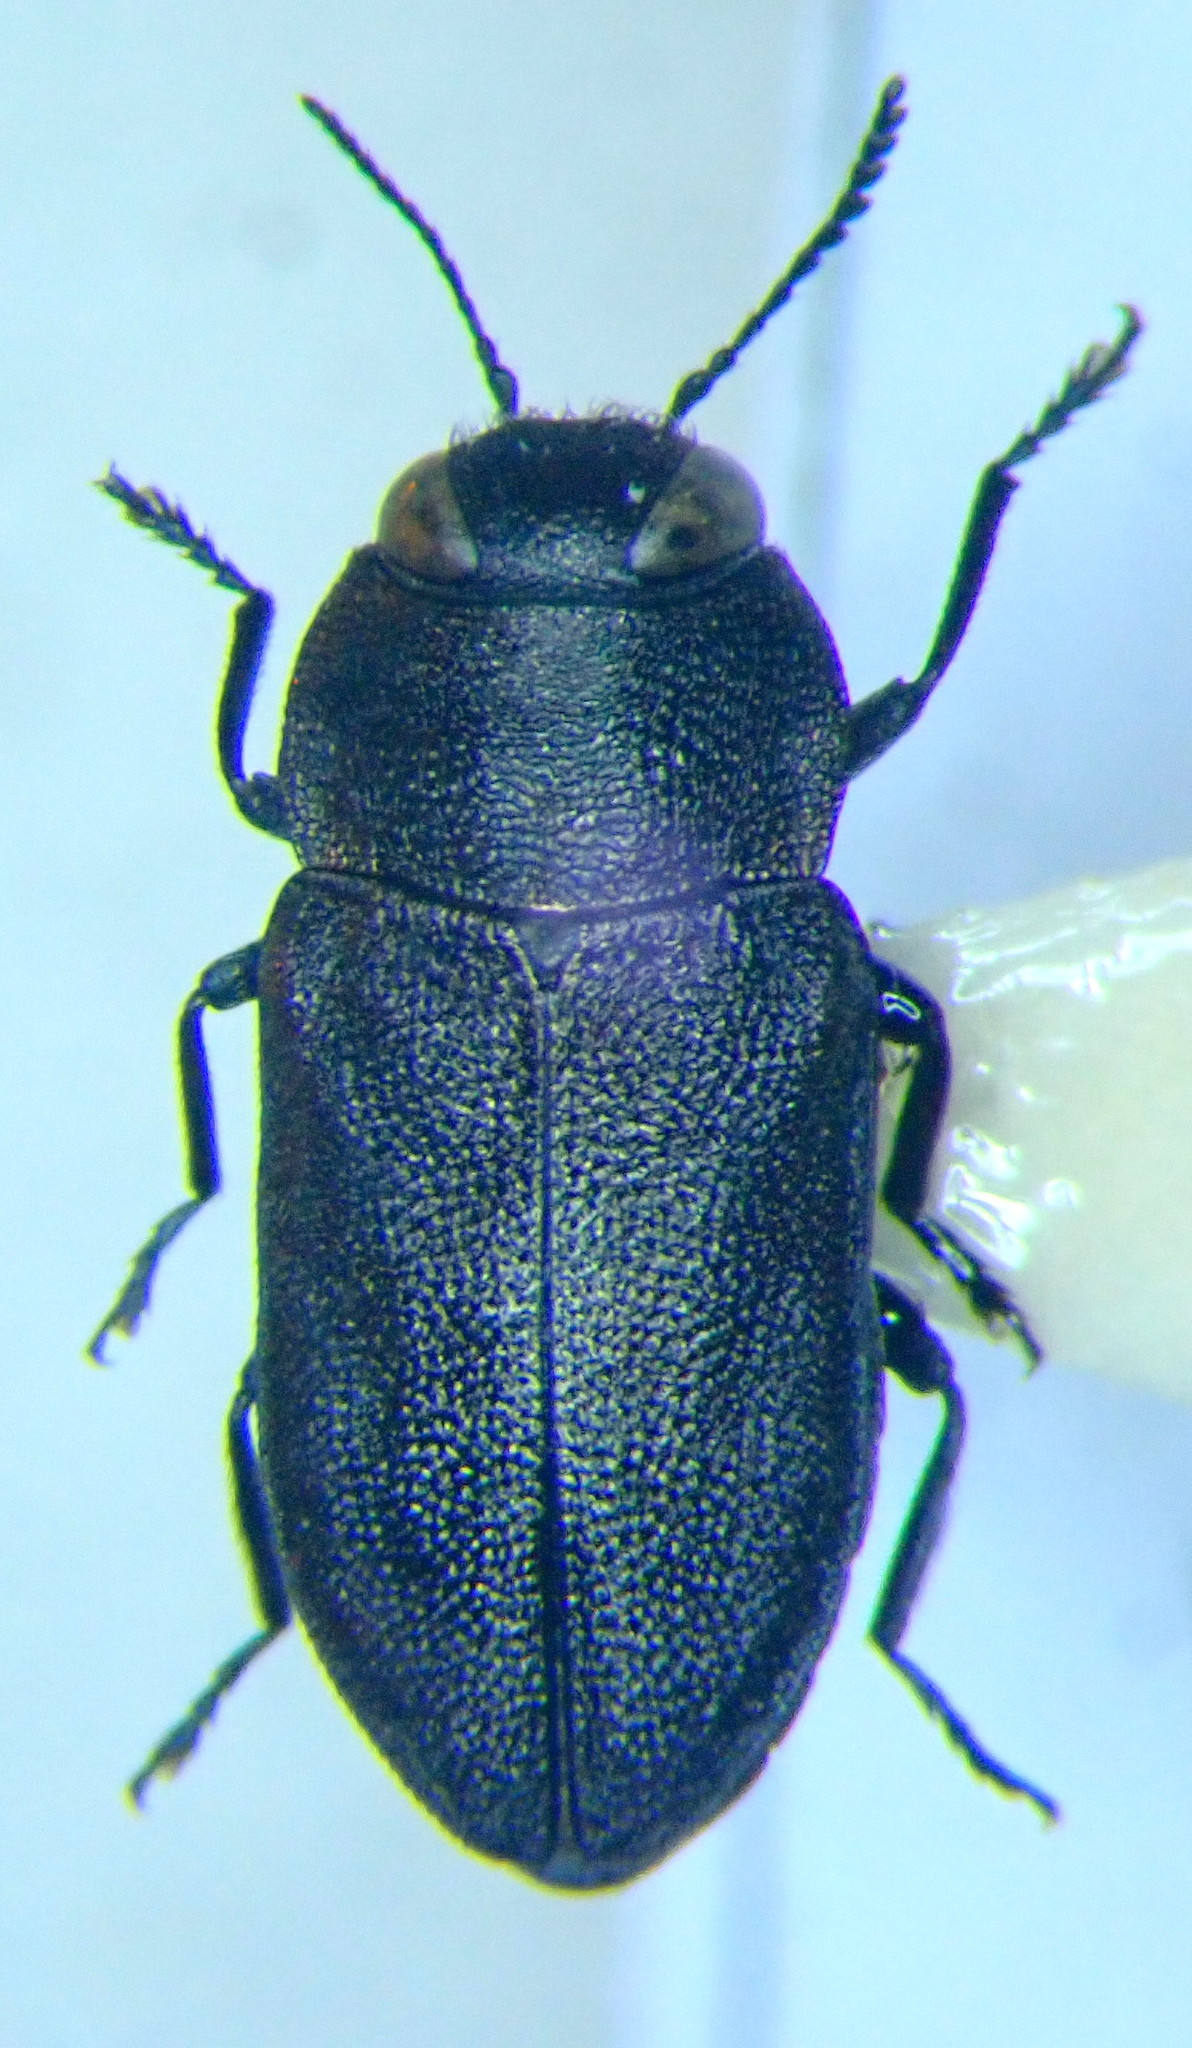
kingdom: Animalia
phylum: Arthropoda
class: Insecta
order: Coleoptera
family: Buprestidae
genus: Anthaxia
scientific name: Anthaxia sepulchralis
